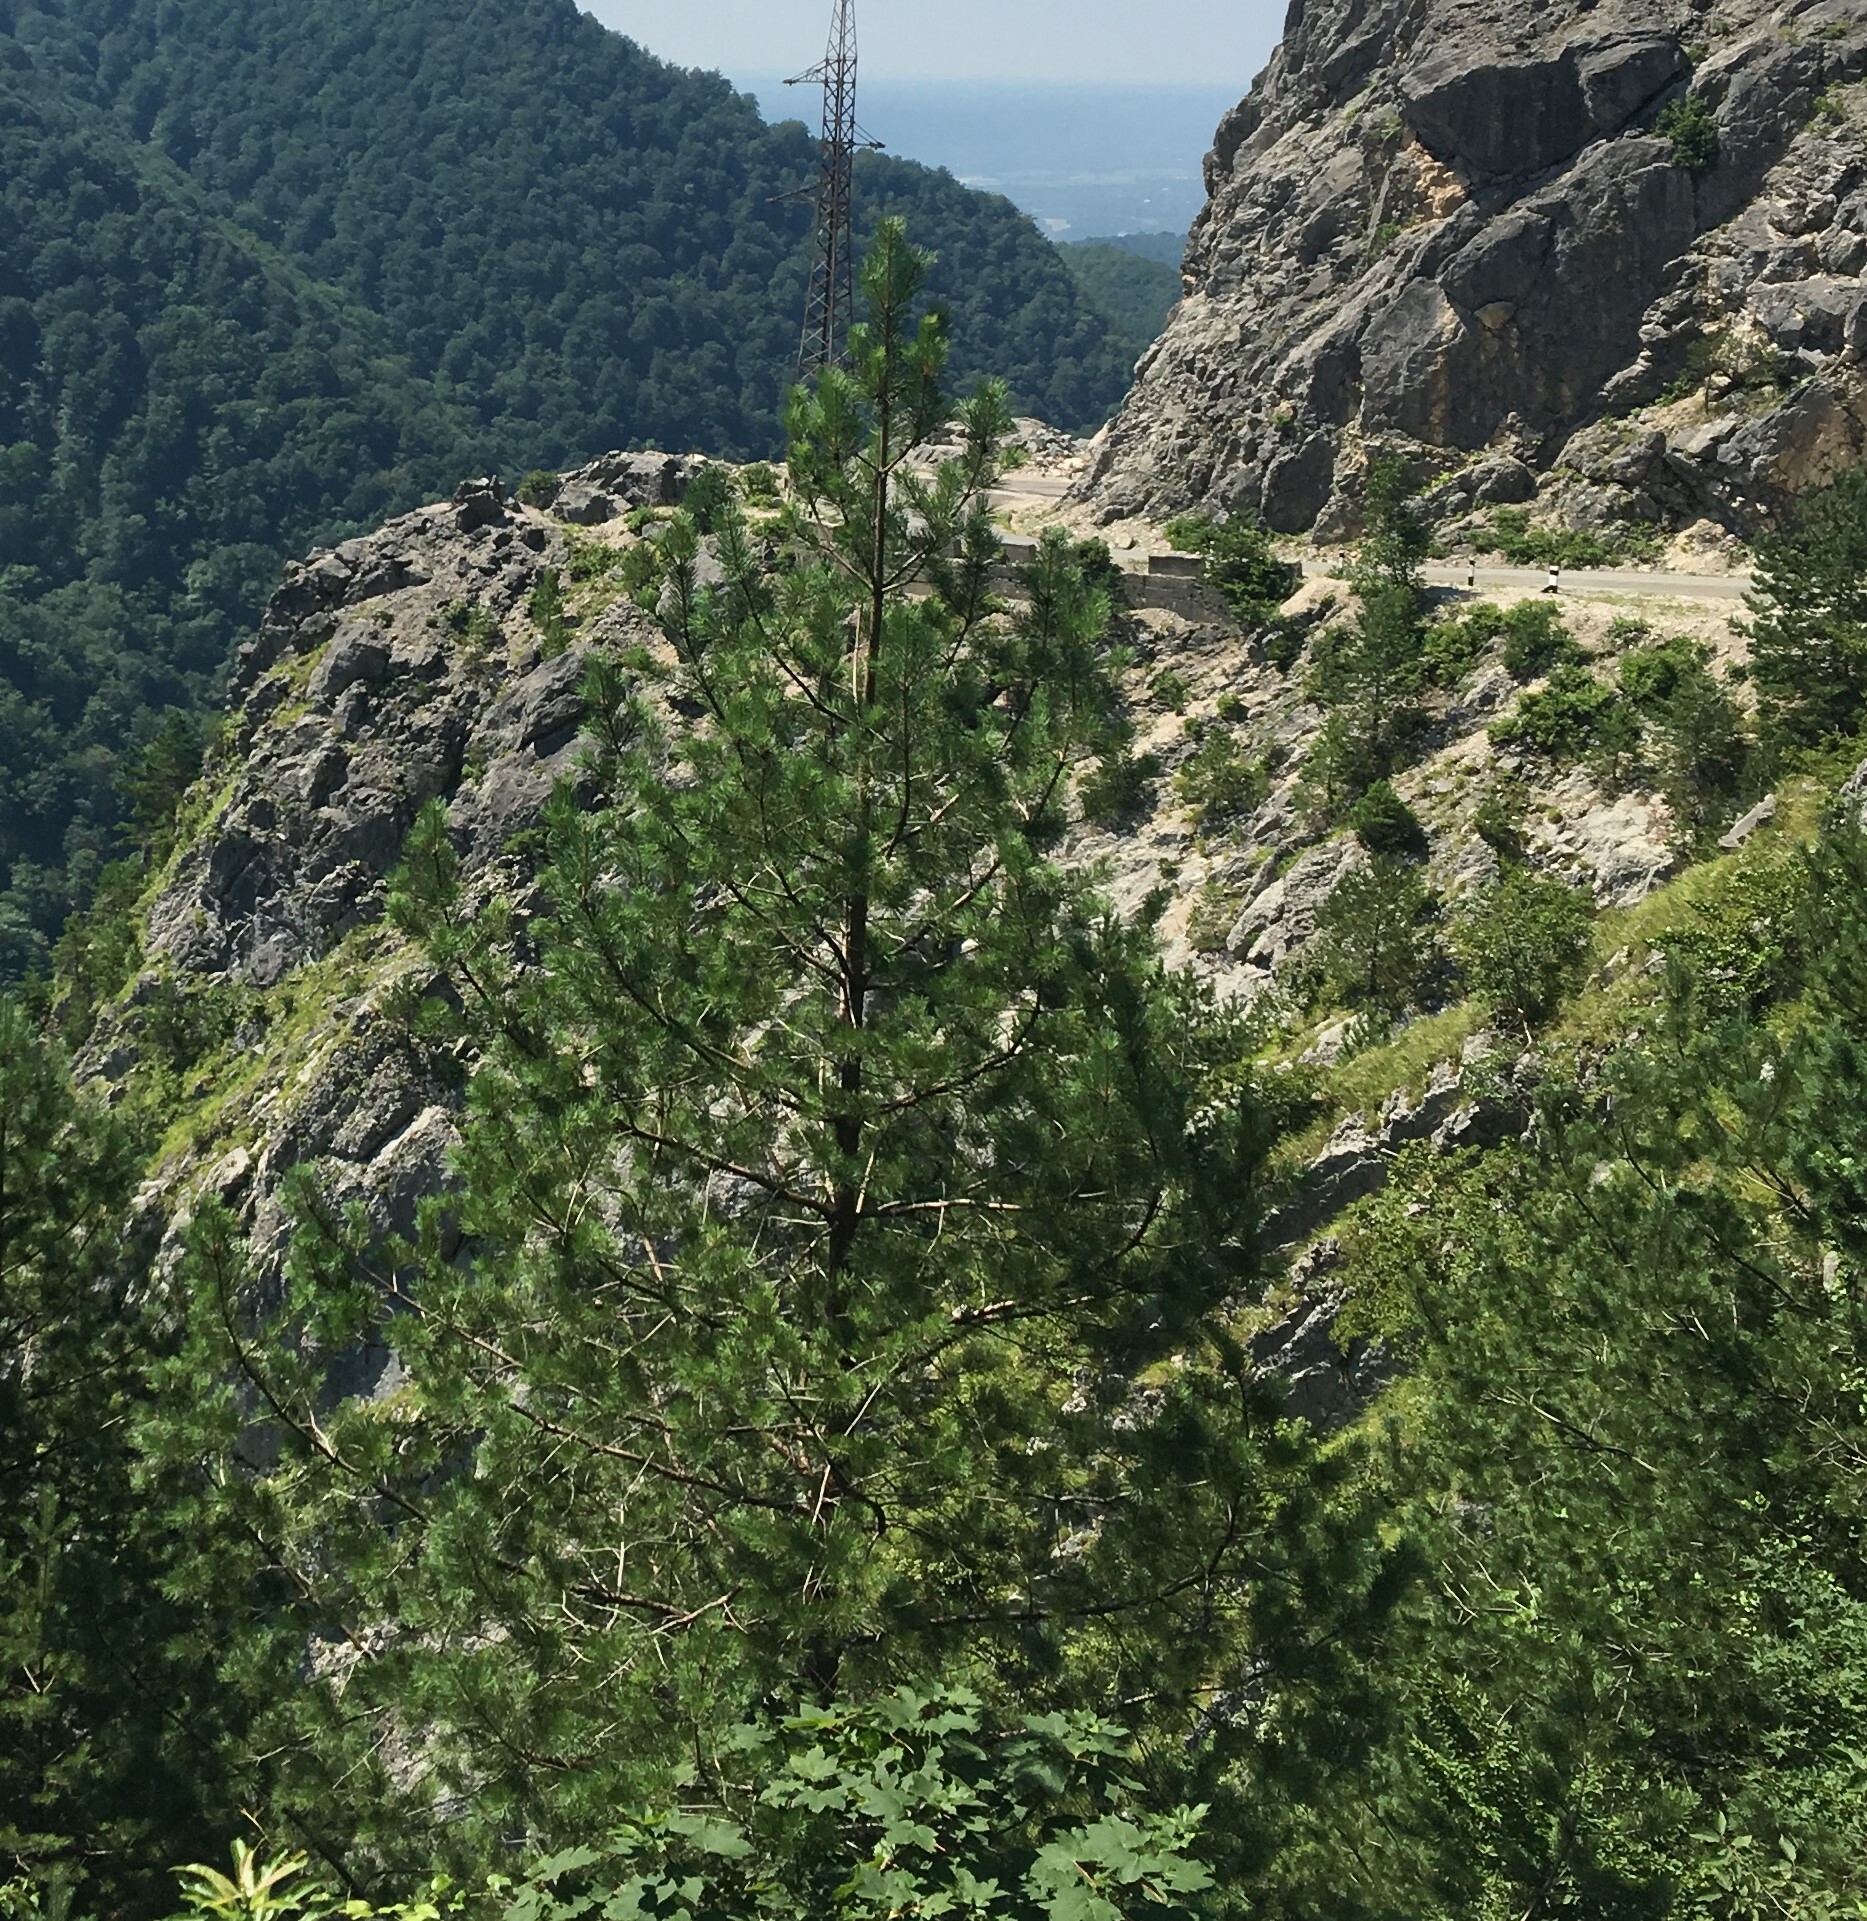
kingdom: Plantae
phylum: Tracheophyta
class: Pinopsida
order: Pinales
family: Pinaceae
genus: Pinus
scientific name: Pinus sylvestris
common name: Scots pine
